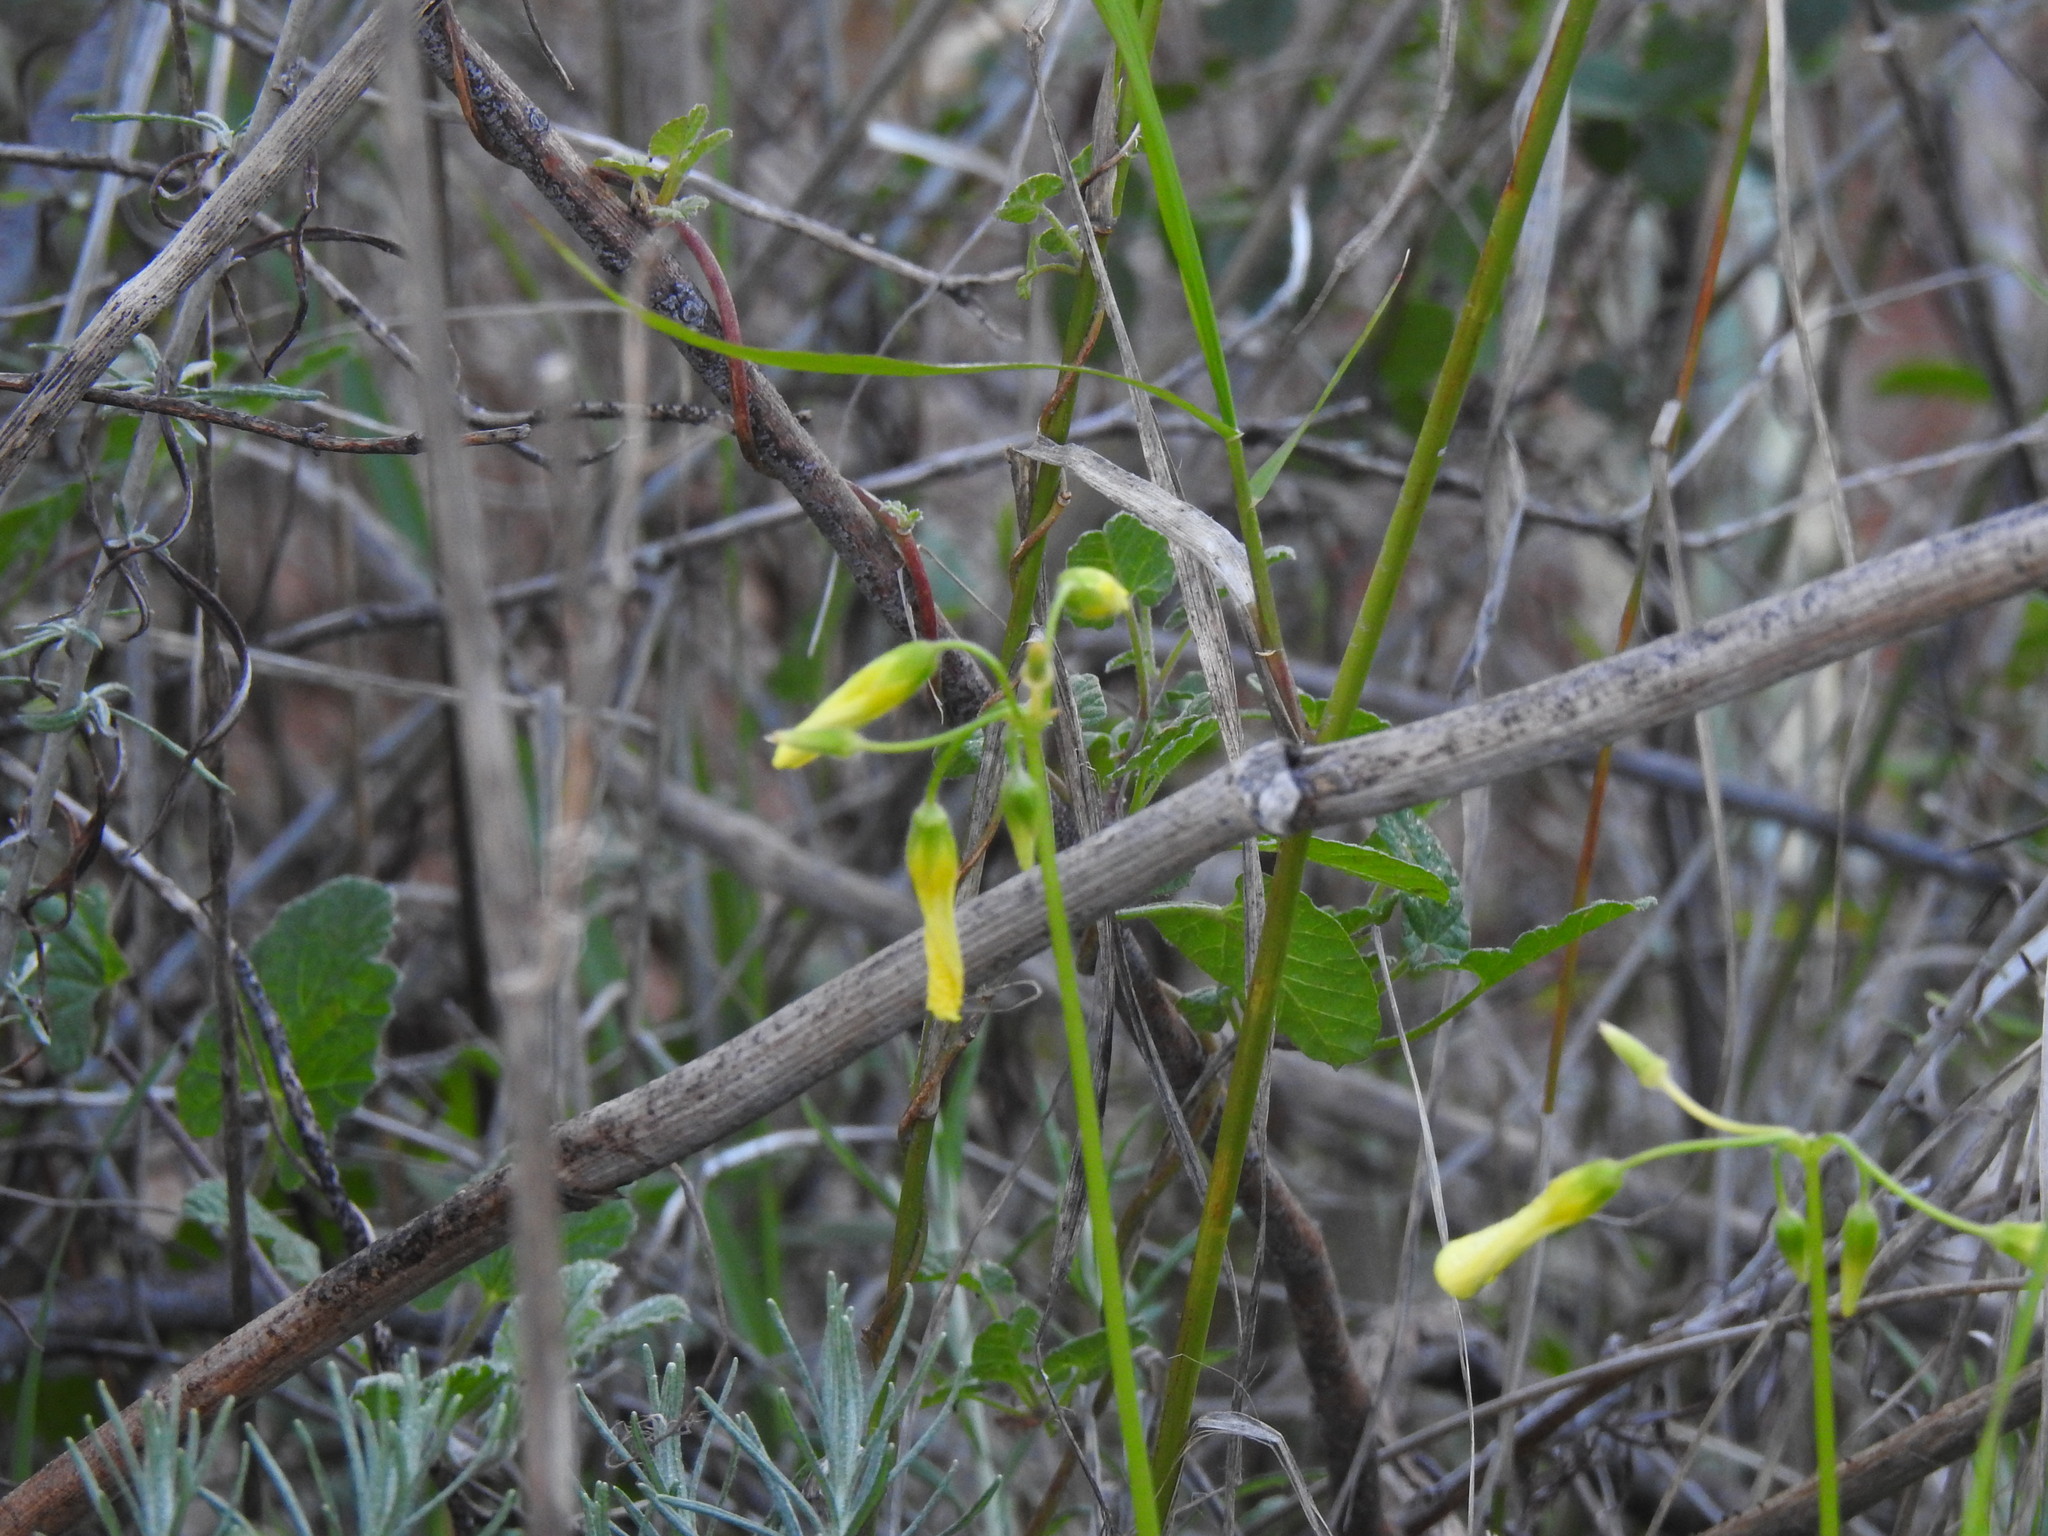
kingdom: Plantae
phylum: Tracheophyta
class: Magnoliopsida
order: Oxalidales
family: Oxalidaceae
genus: Oxalis
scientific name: Oxalis pes-caprae
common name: Bermuda-buttercup
